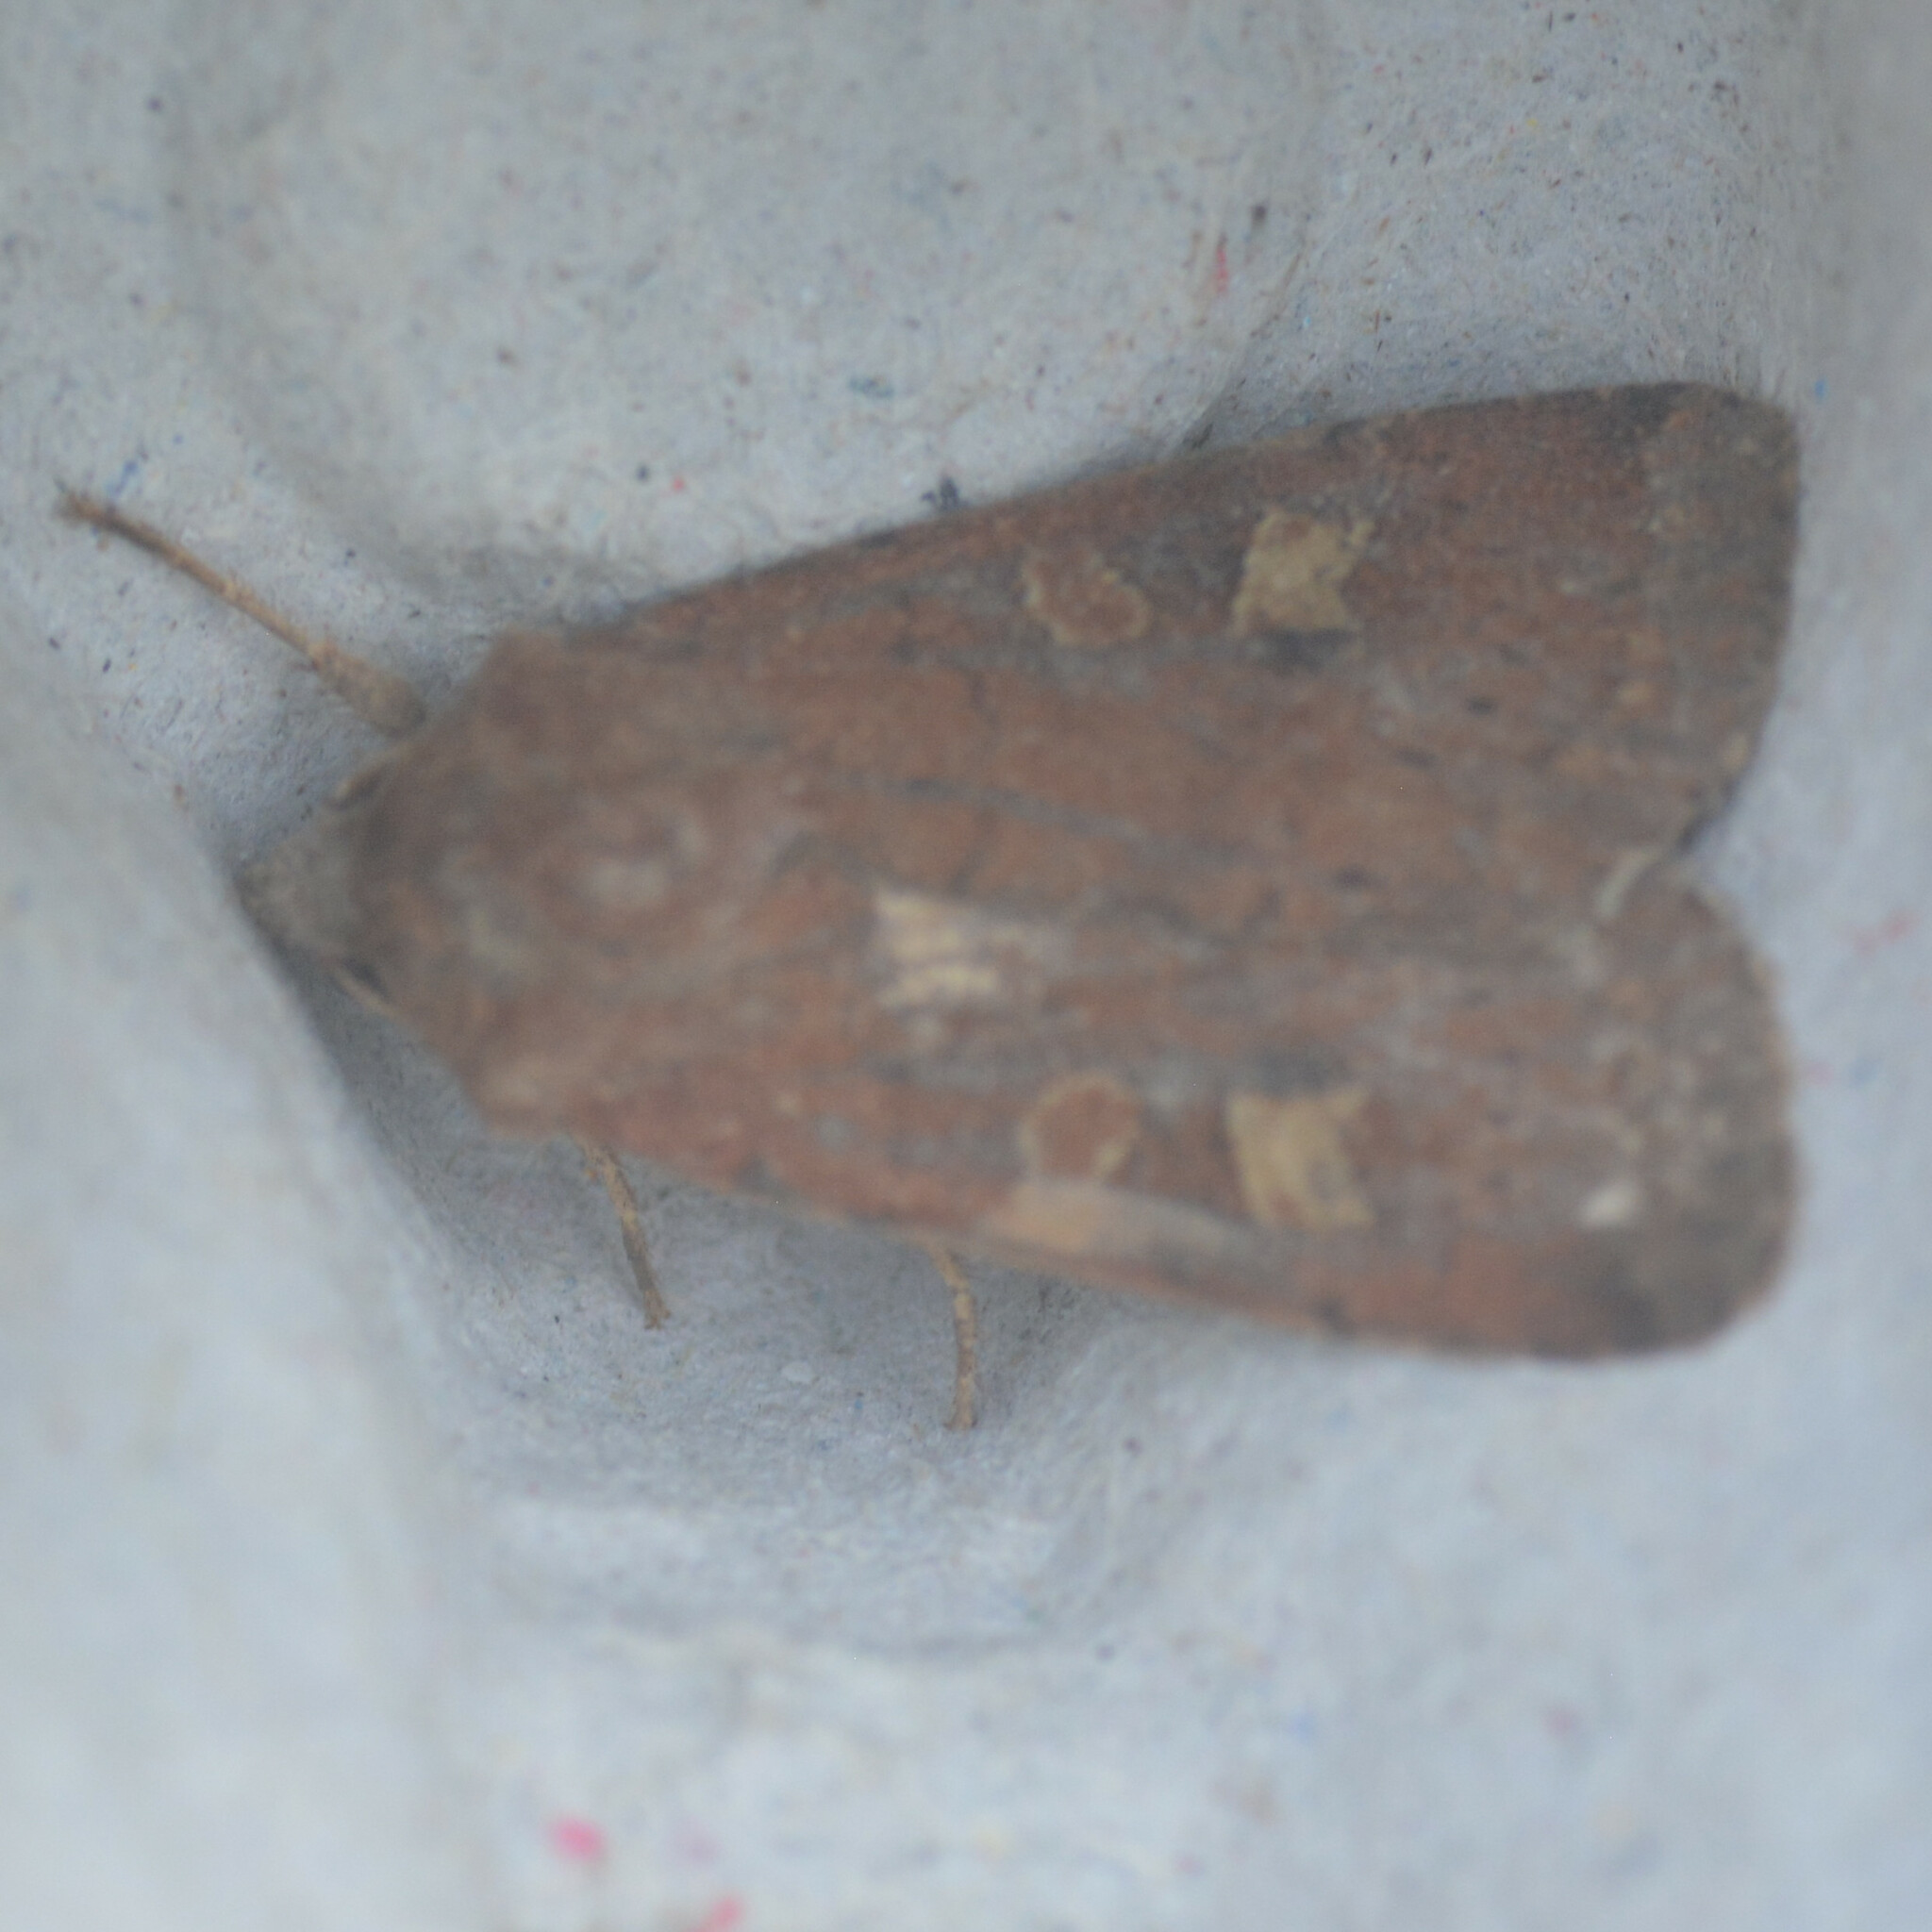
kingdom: Animalia
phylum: Arthropoda
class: Insecta
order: Lepidoptera
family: Noctuidae
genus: Xestia
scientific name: Xestia xanthographa
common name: Square-spot rustic
